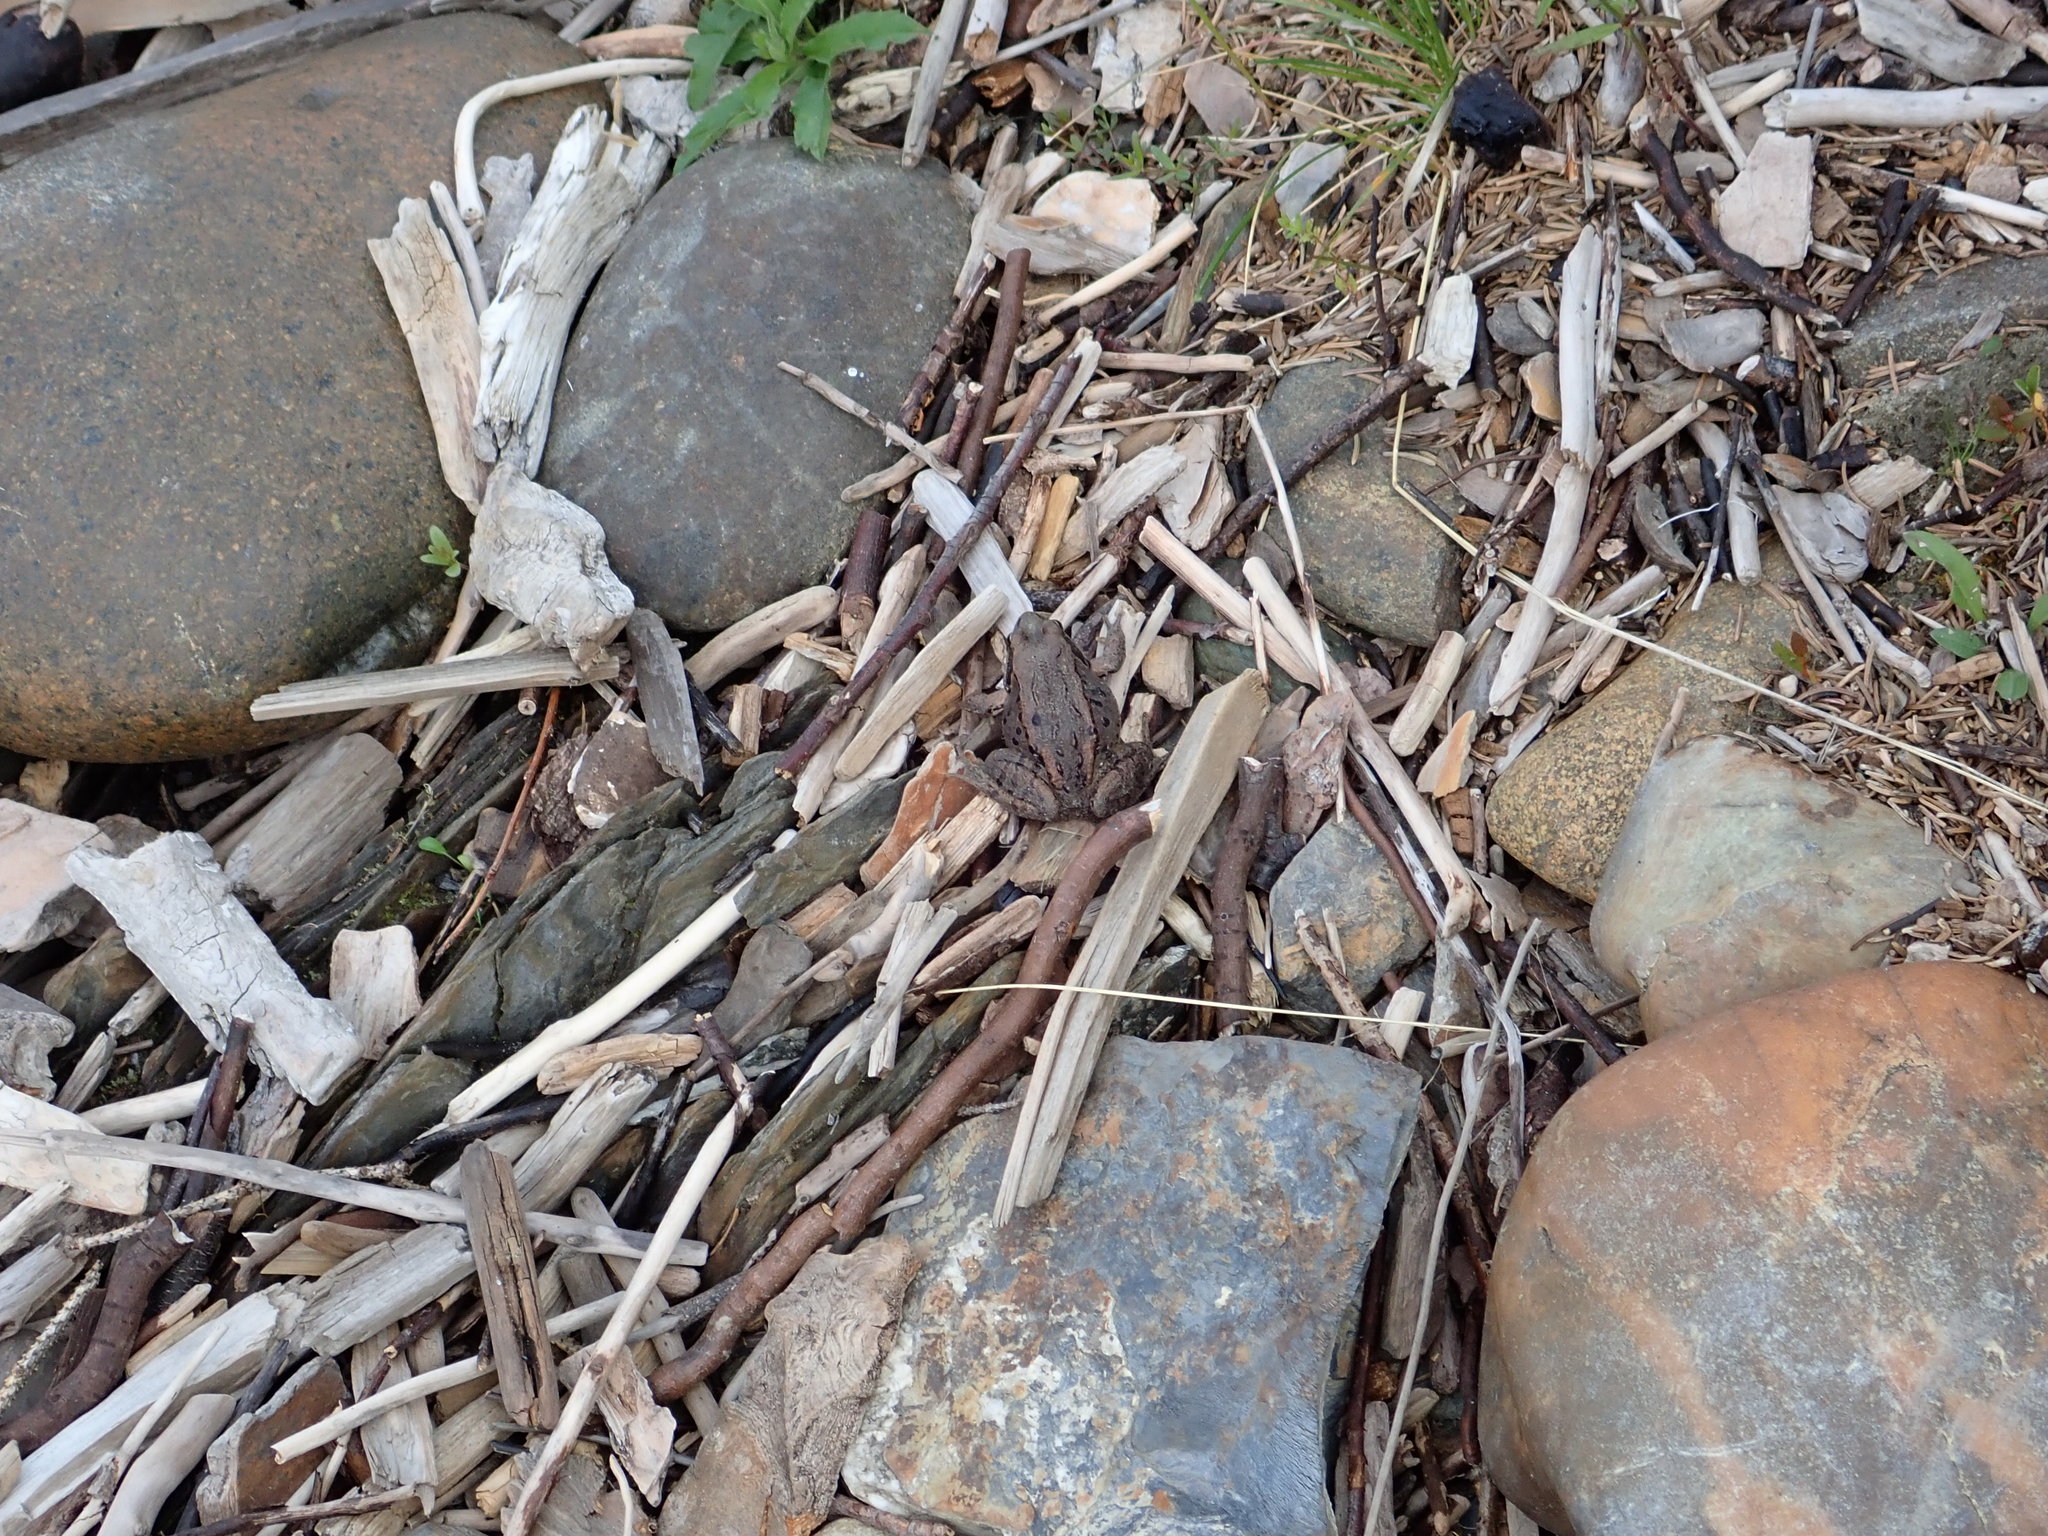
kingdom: Animalia
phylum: Chordata
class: Amphibia
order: Anura
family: Ranidae
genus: Lithobates
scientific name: Lithobates sylvaticus
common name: Wood frog
